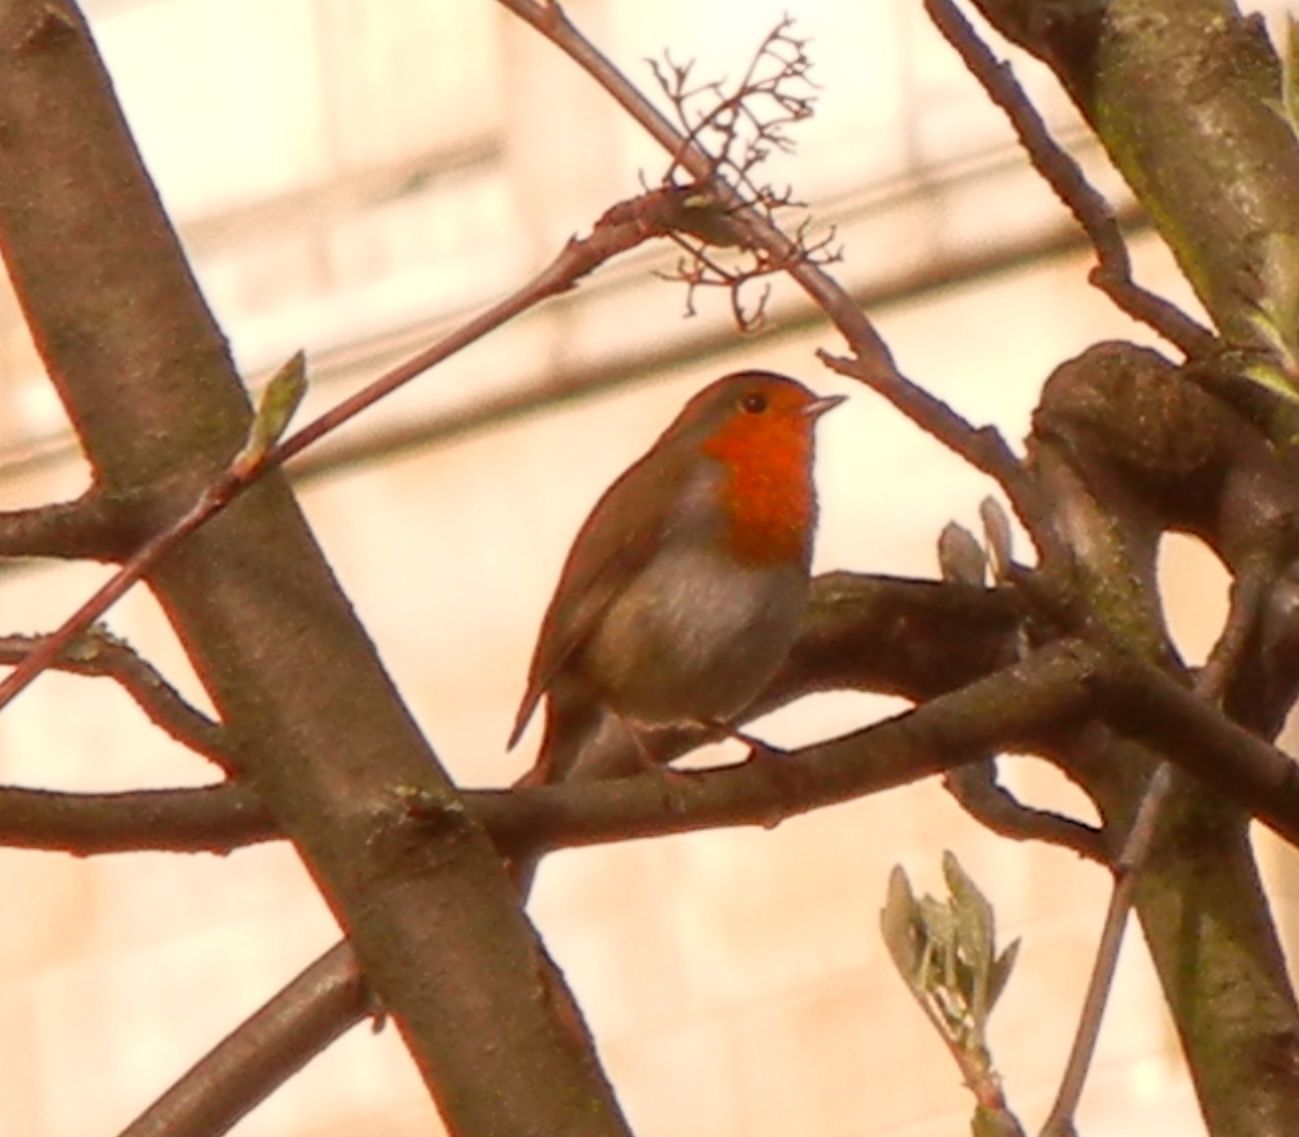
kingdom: Animalia
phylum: Chordata
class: Aves
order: Passeriformes
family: Muscicapidae
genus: Erithacus
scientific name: Erithacus rubecula
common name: European robin
